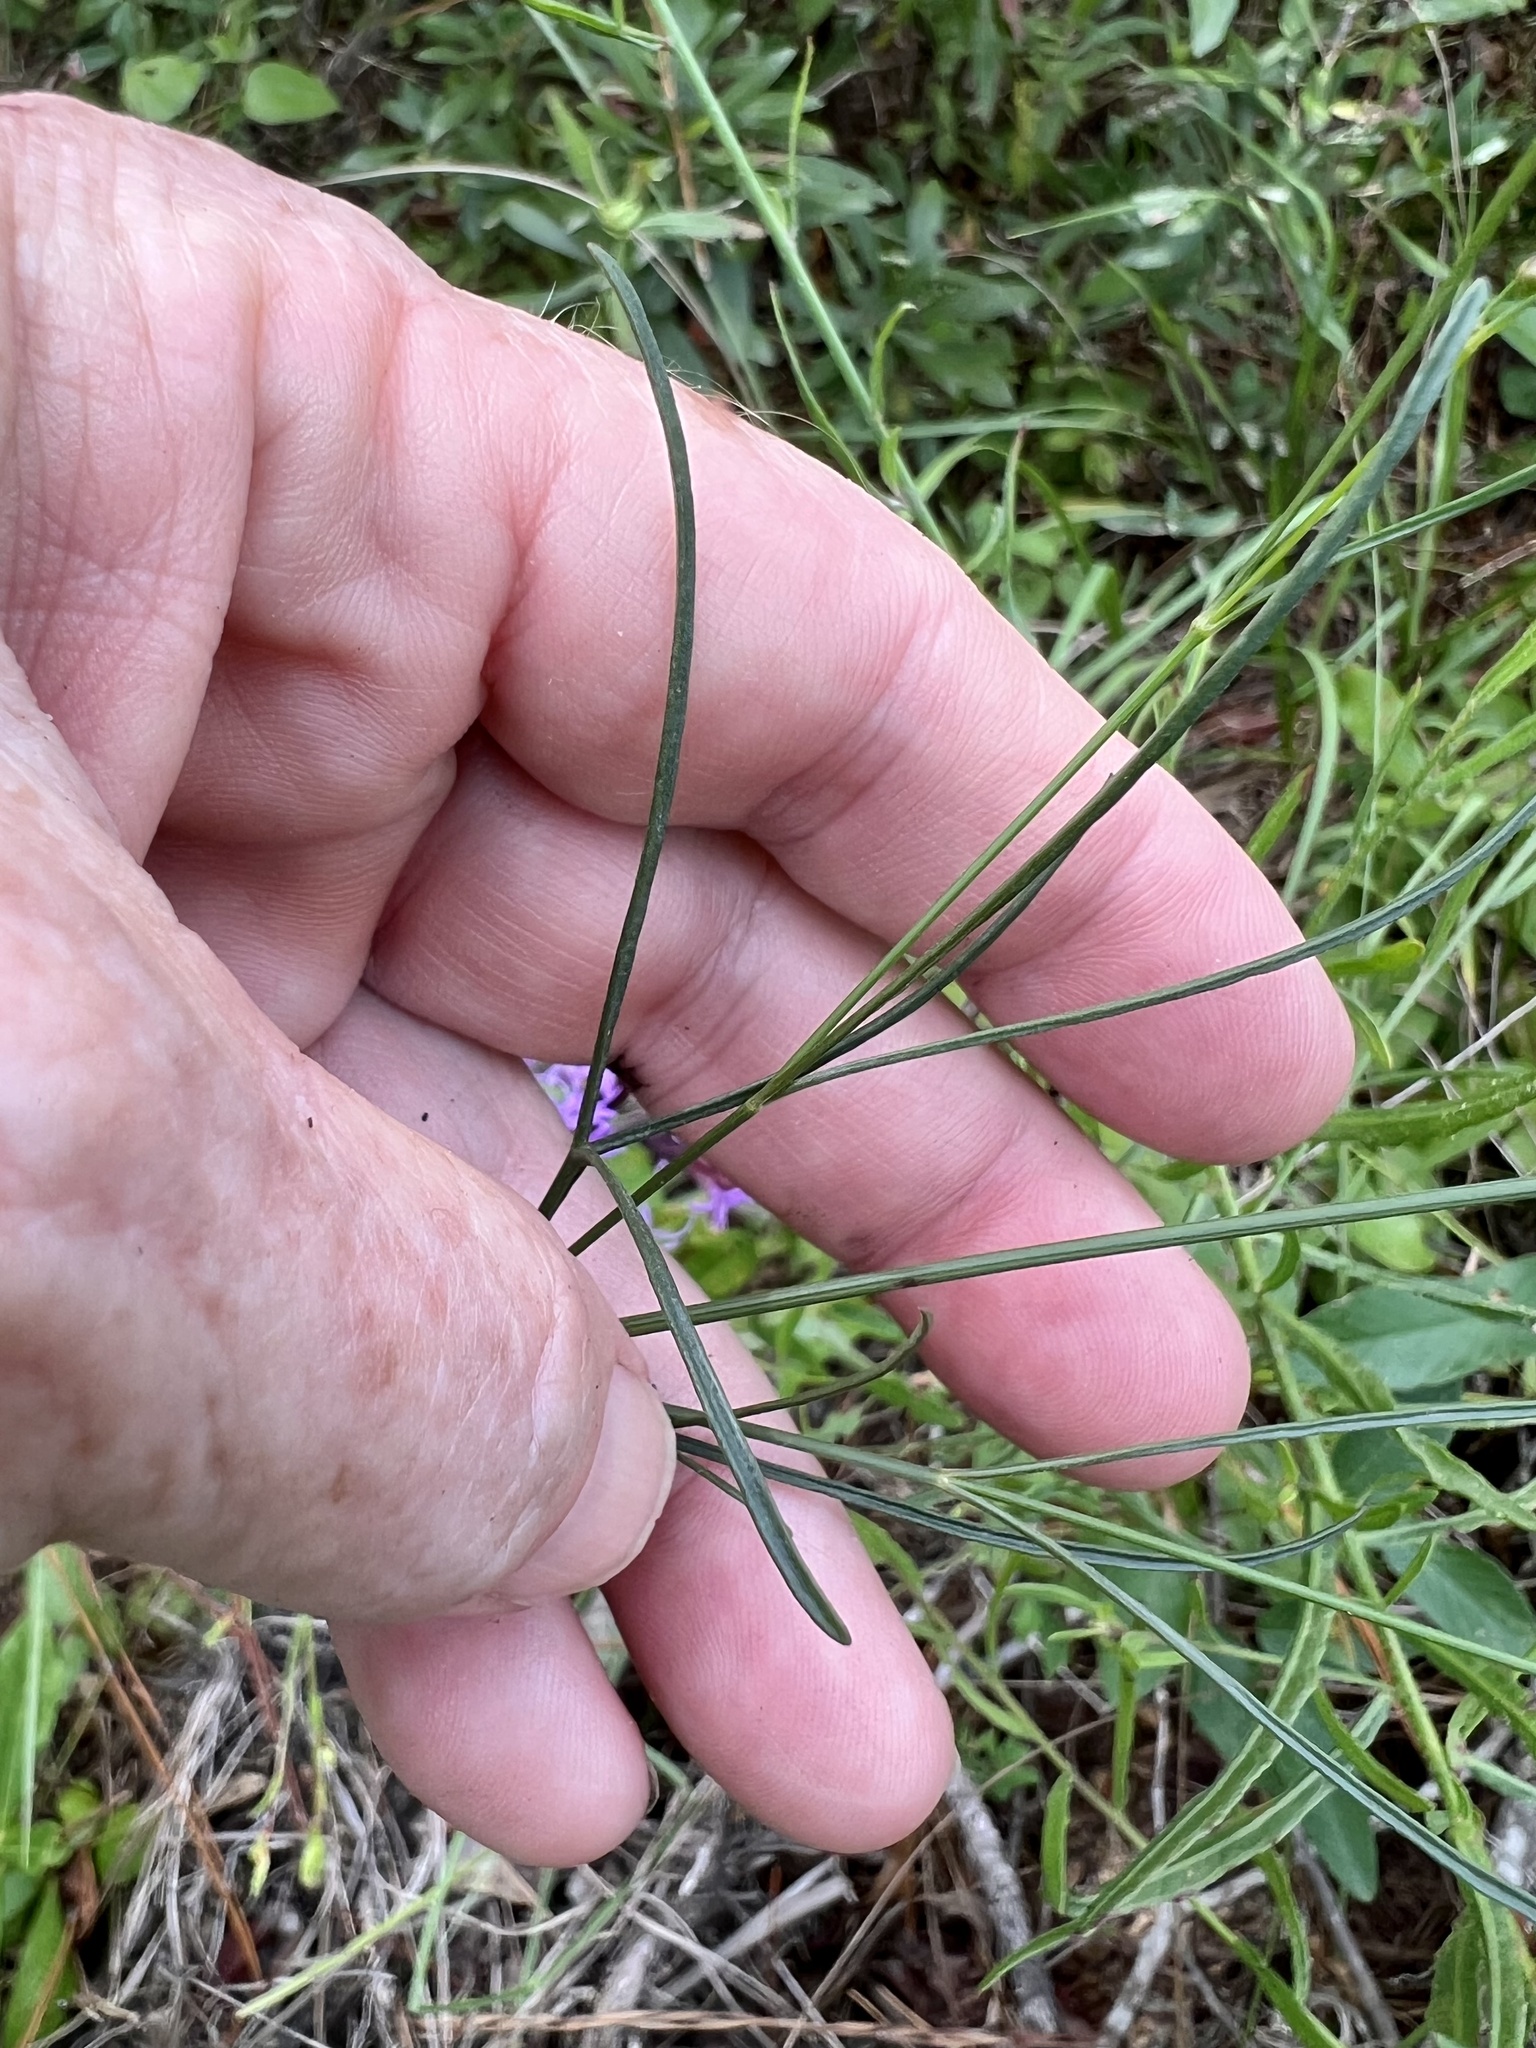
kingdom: Plantae
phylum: Tracheophyta
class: Magnoliopsida
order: Asterales
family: Asteraceae
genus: Coreopsis
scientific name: Coreopsis gladiata
